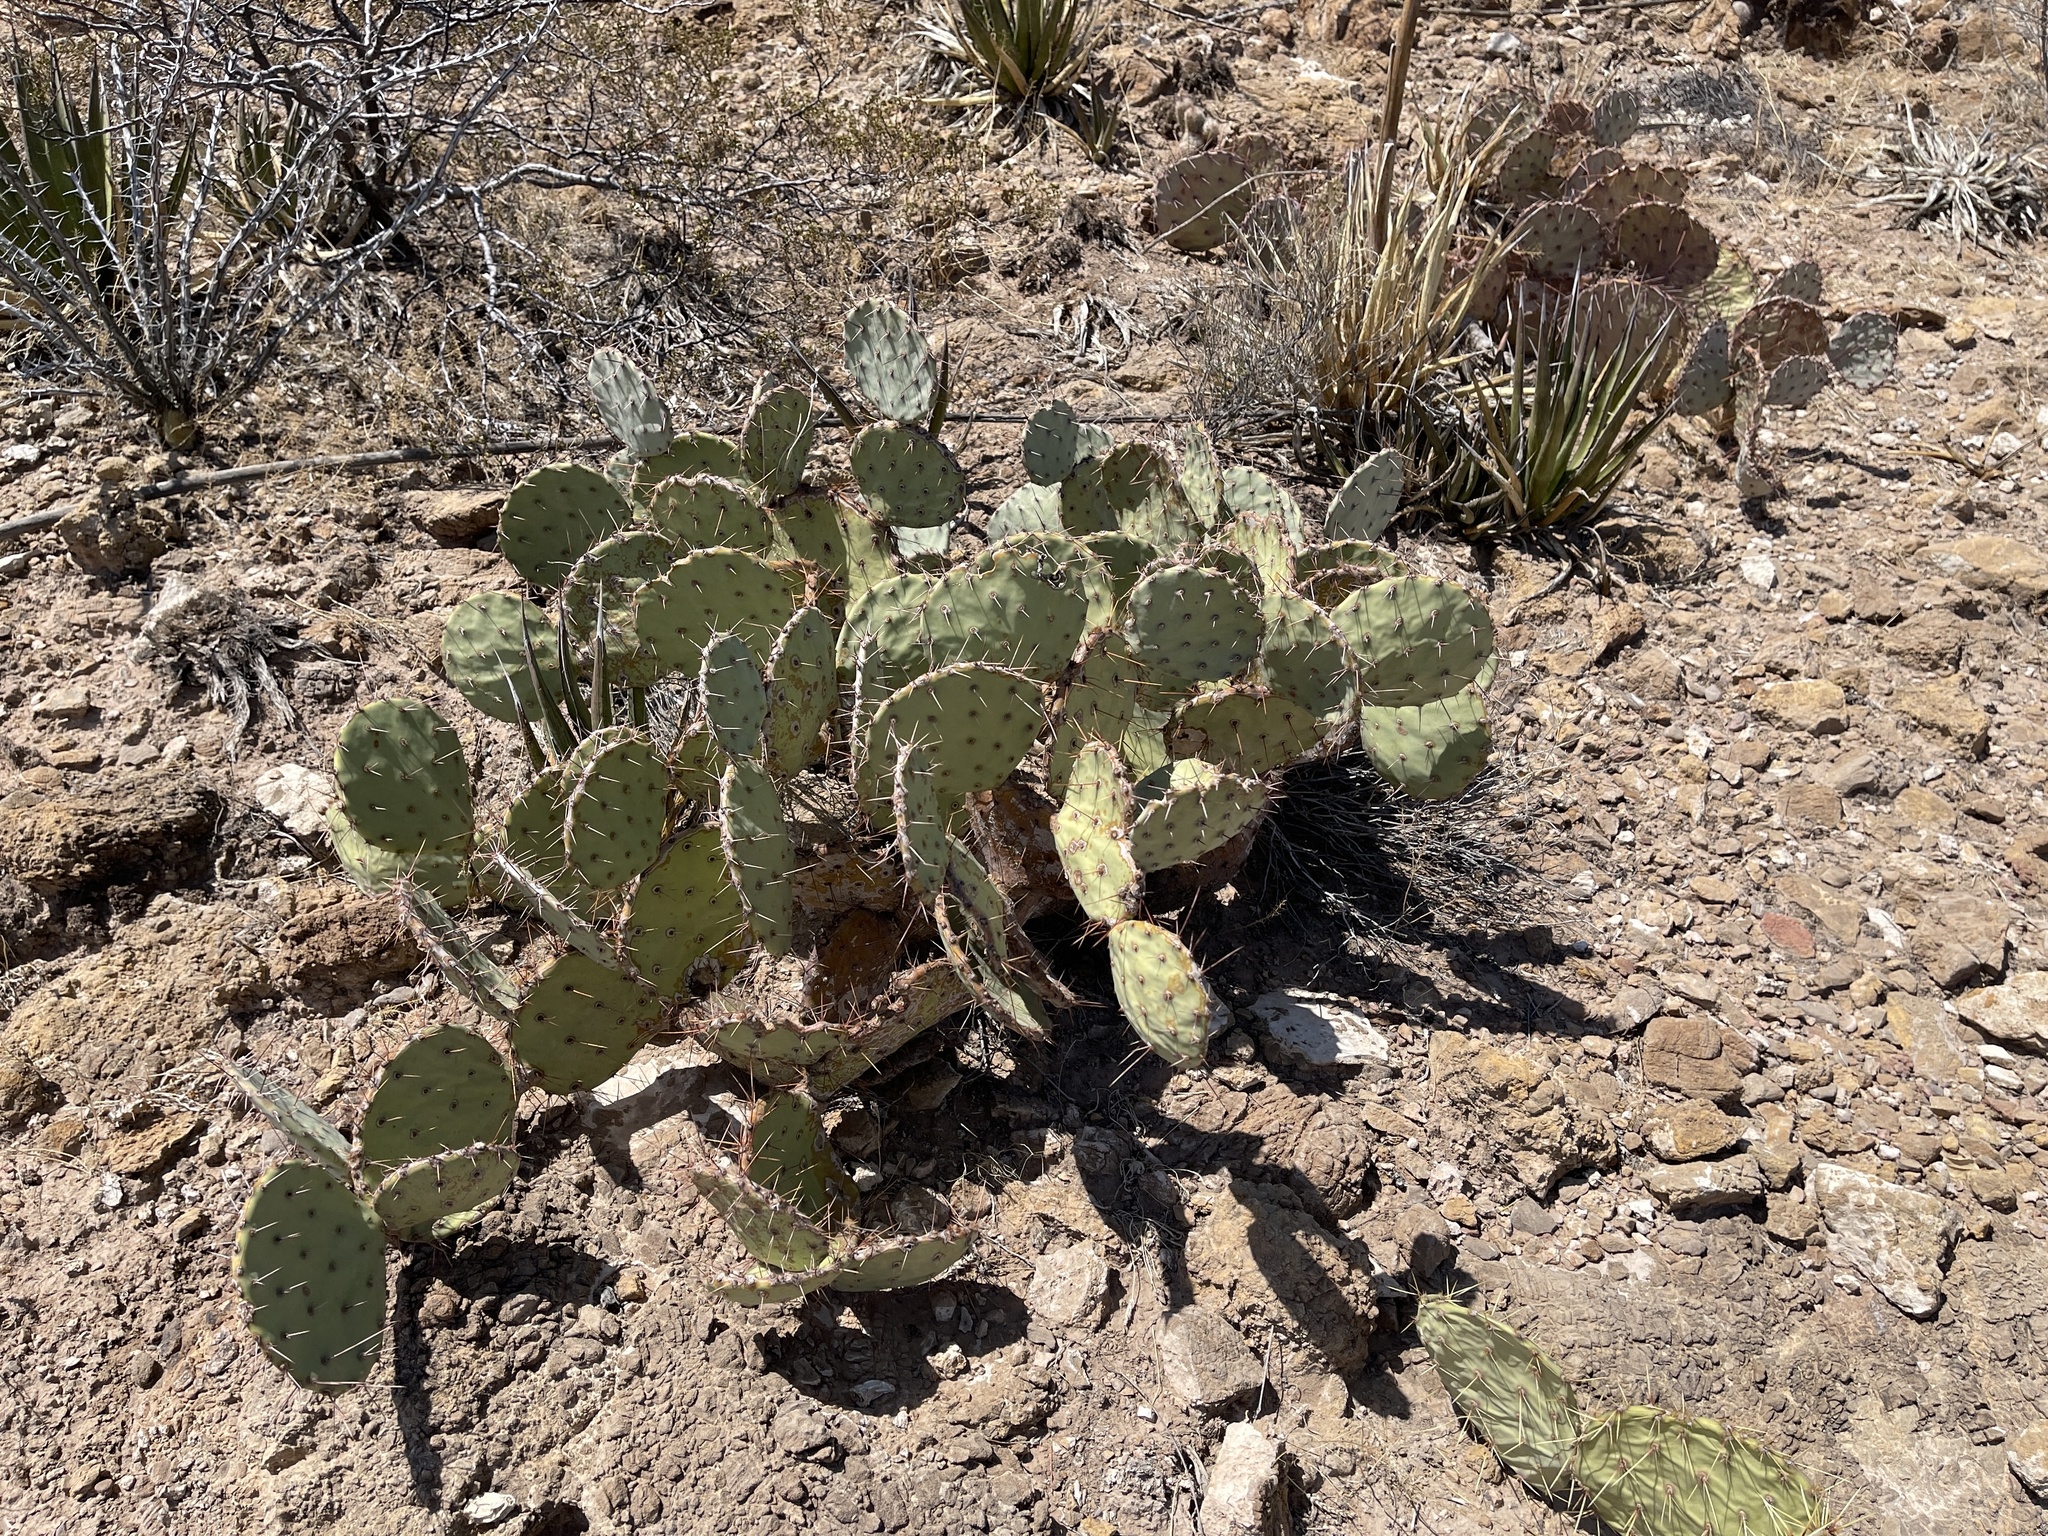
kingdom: Plantae
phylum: Tracheophyta
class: Magnoliopsida
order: Caryophyllales
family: Cactaceae
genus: Opuntia
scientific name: Opuntia engelmannii
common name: Cactus-apple
